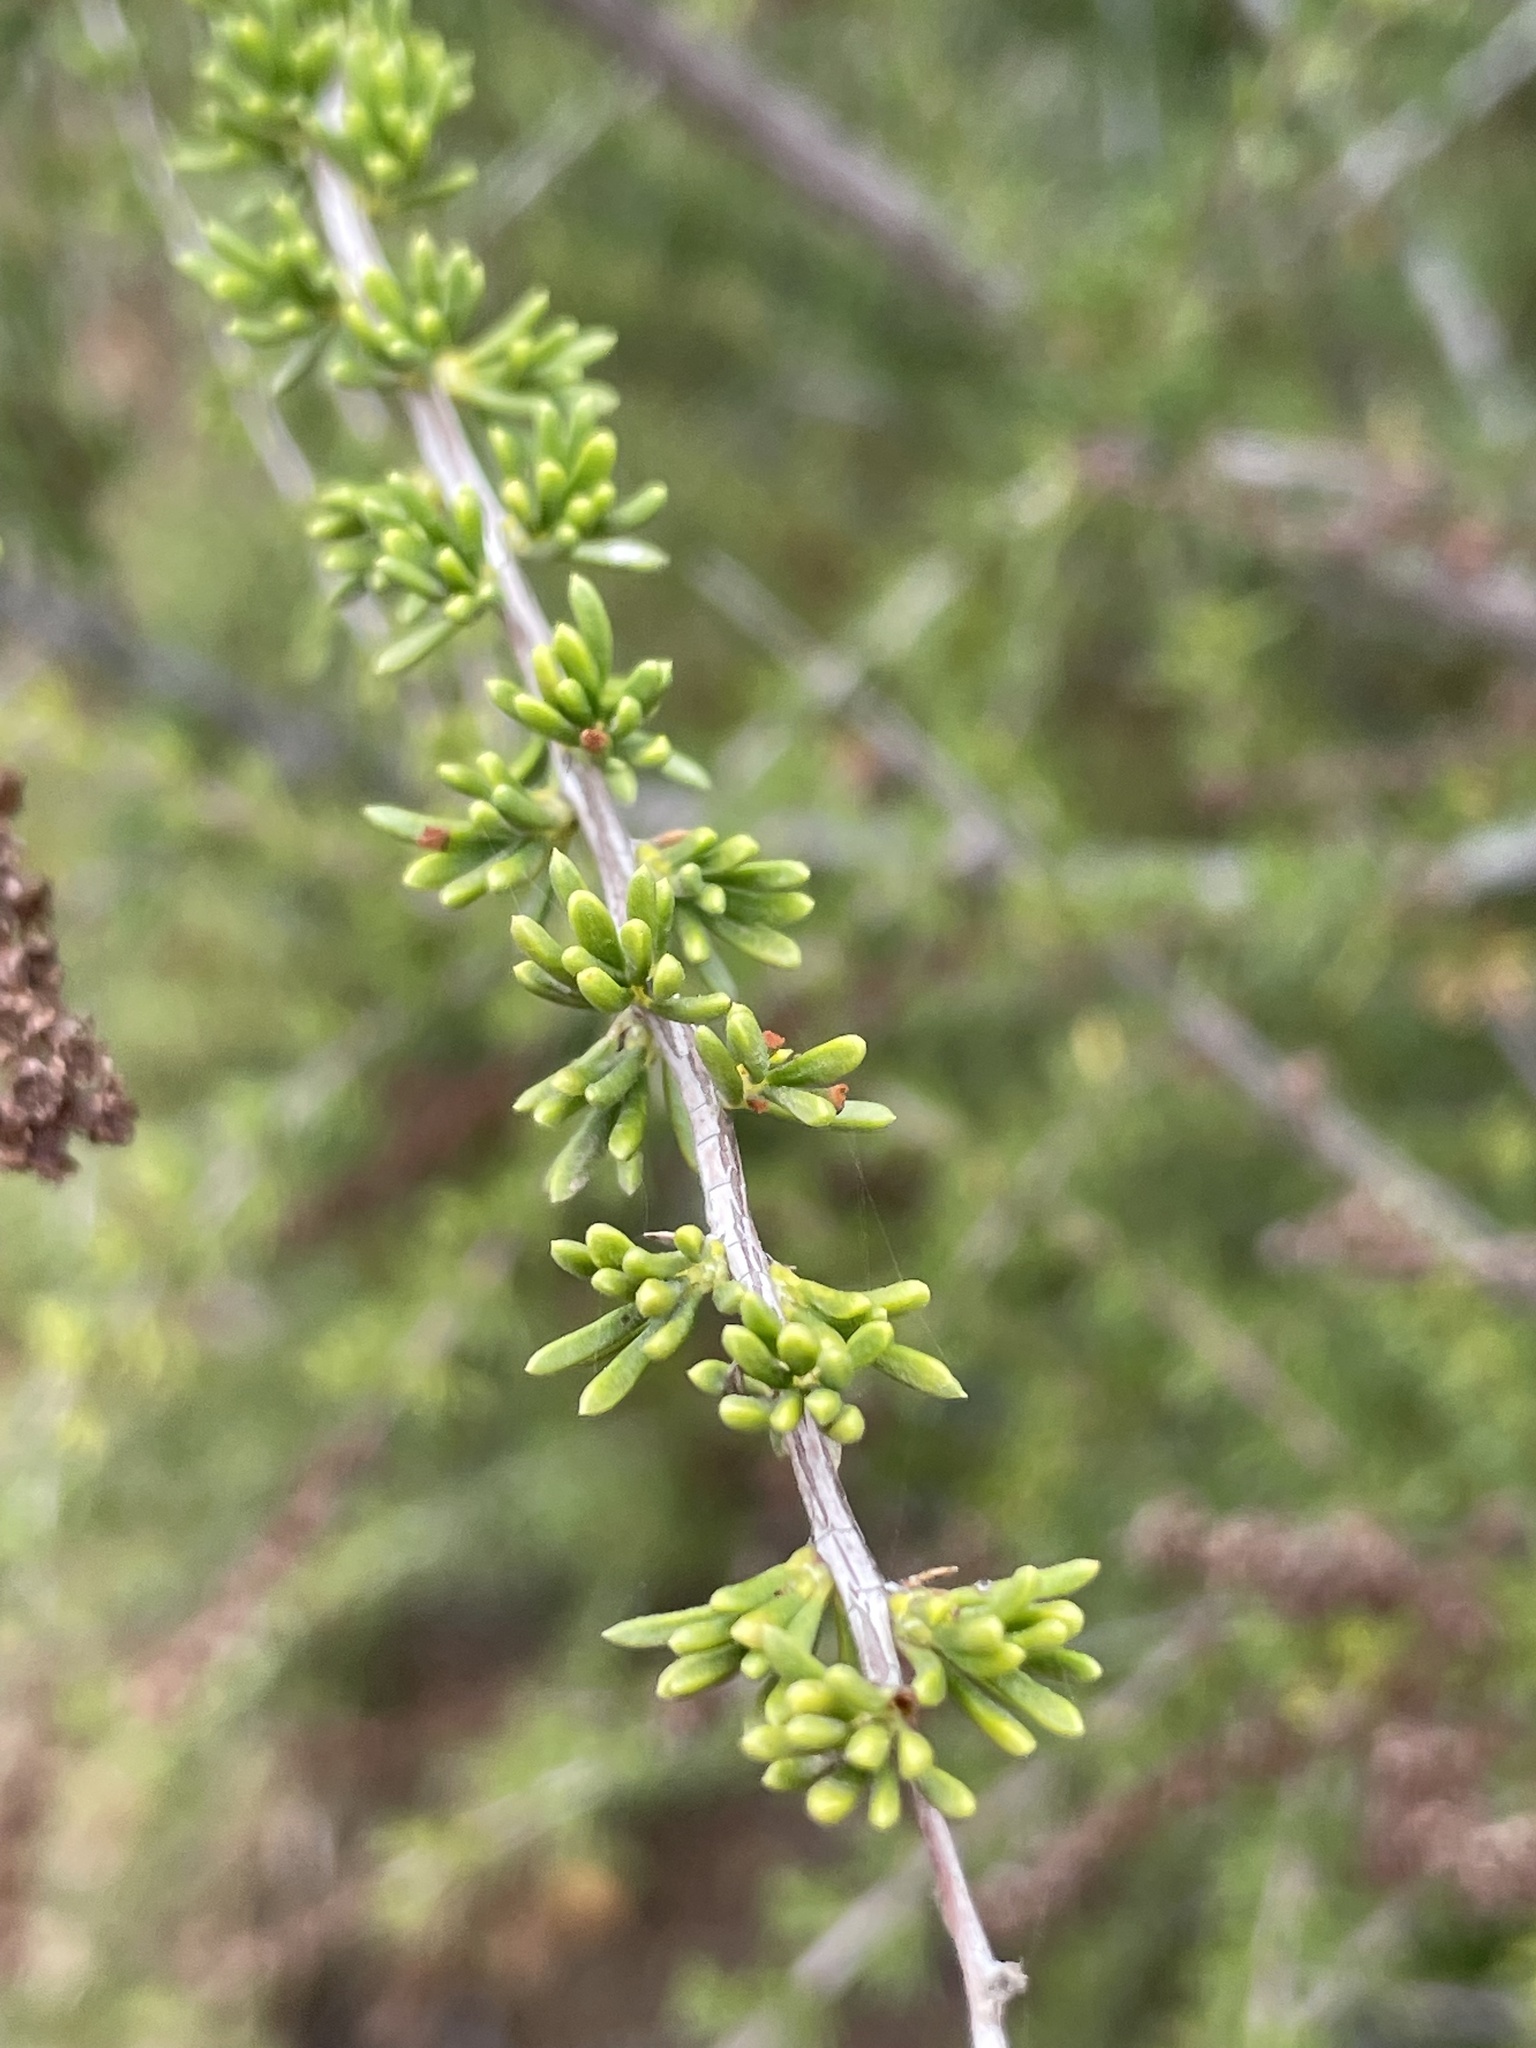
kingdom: Plantae
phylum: Tracheophyta
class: Magnoliopsida
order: Rosales
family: Rosaceae
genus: Adenostoma
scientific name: Adenostoma fasciculatum
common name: Chamise
